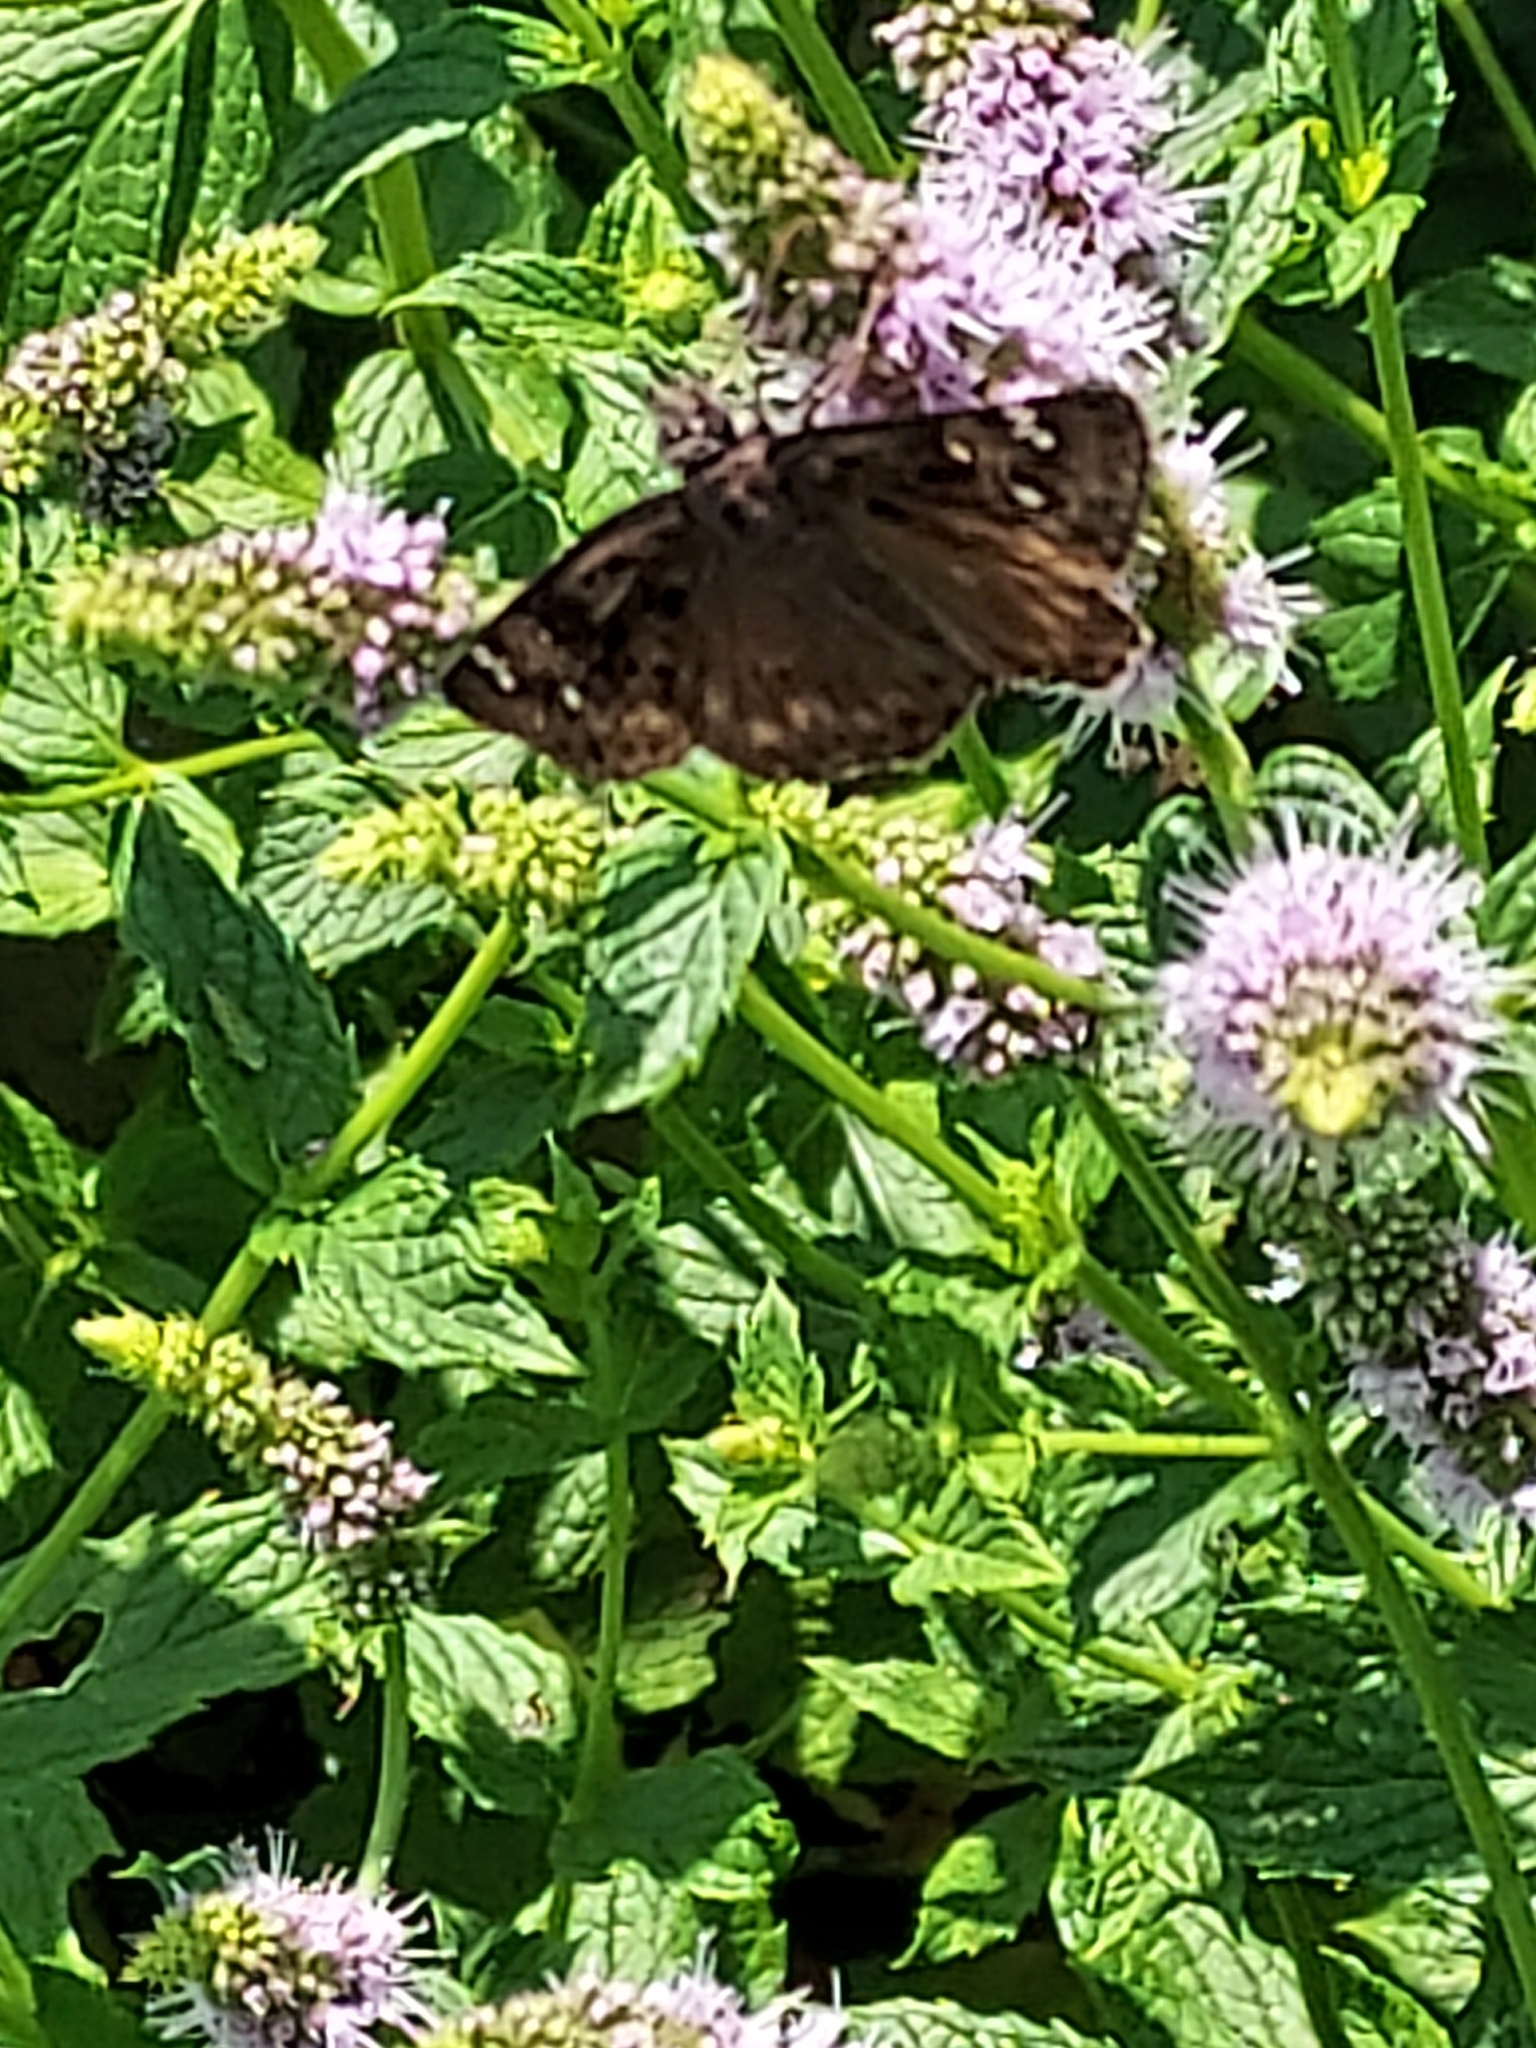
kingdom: Animalia
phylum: Arthropoda
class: Insecta
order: Lepidoptera
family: Hesperiidae
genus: Erynnis
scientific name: Erynnis horatius
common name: Horace's duskywing
